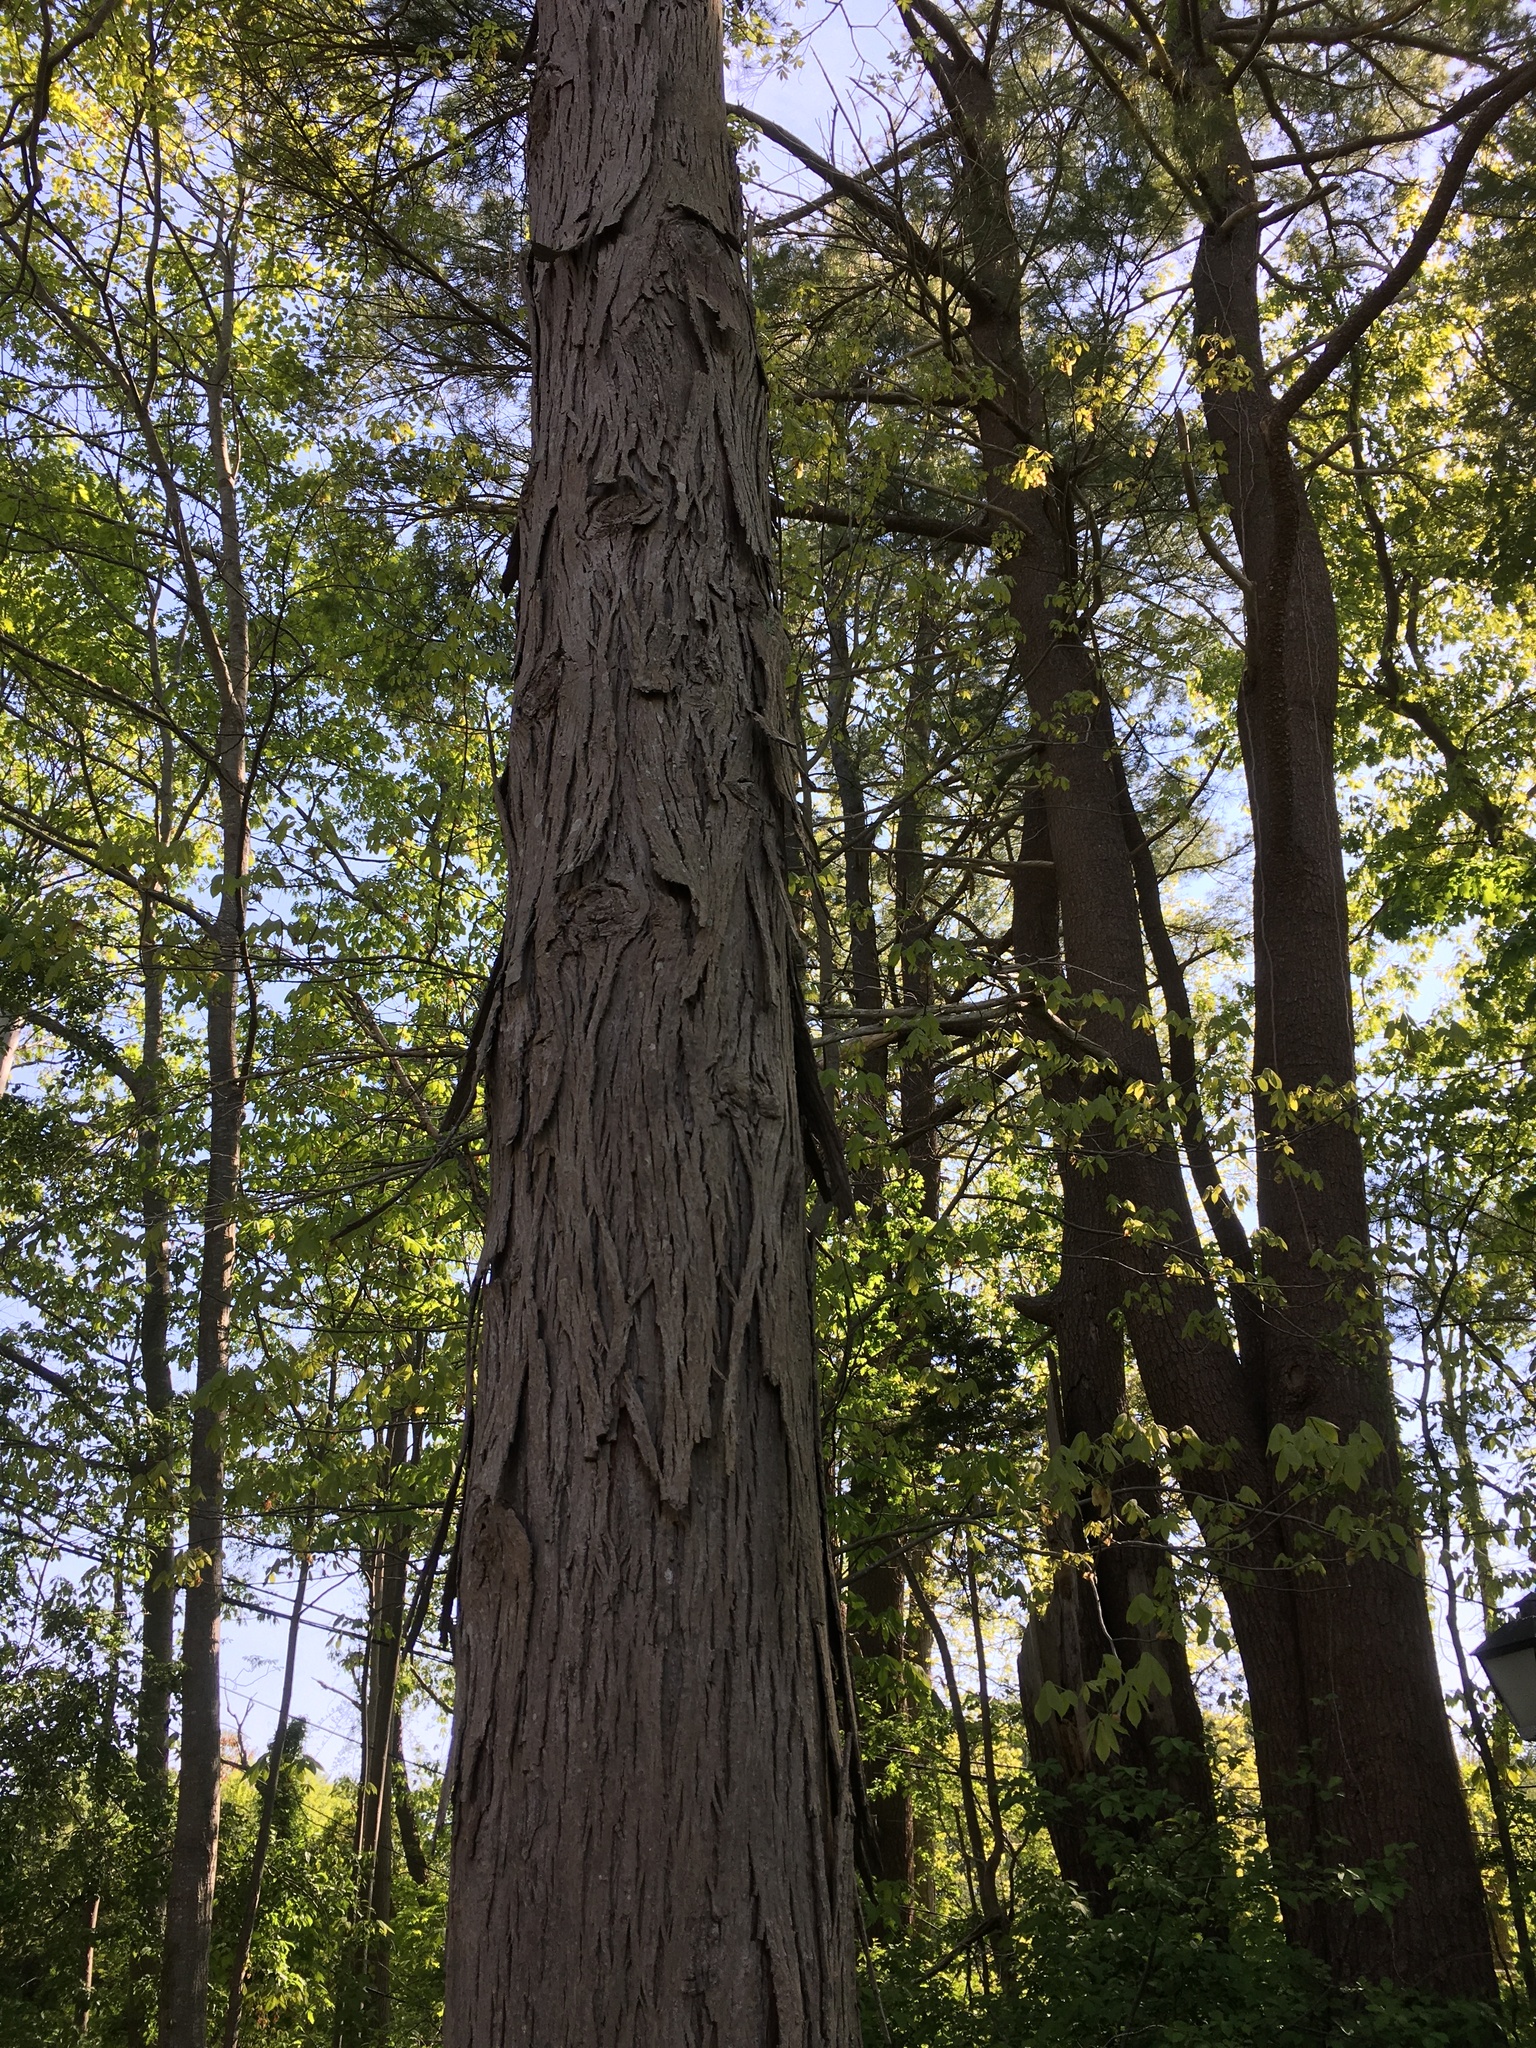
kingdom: Plantae
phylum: Tracheophyta
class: Magnoliopsida
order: Fagales
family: Juglandaceae
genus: Carya
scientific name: Carya ovata
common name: Shagbark hickory
